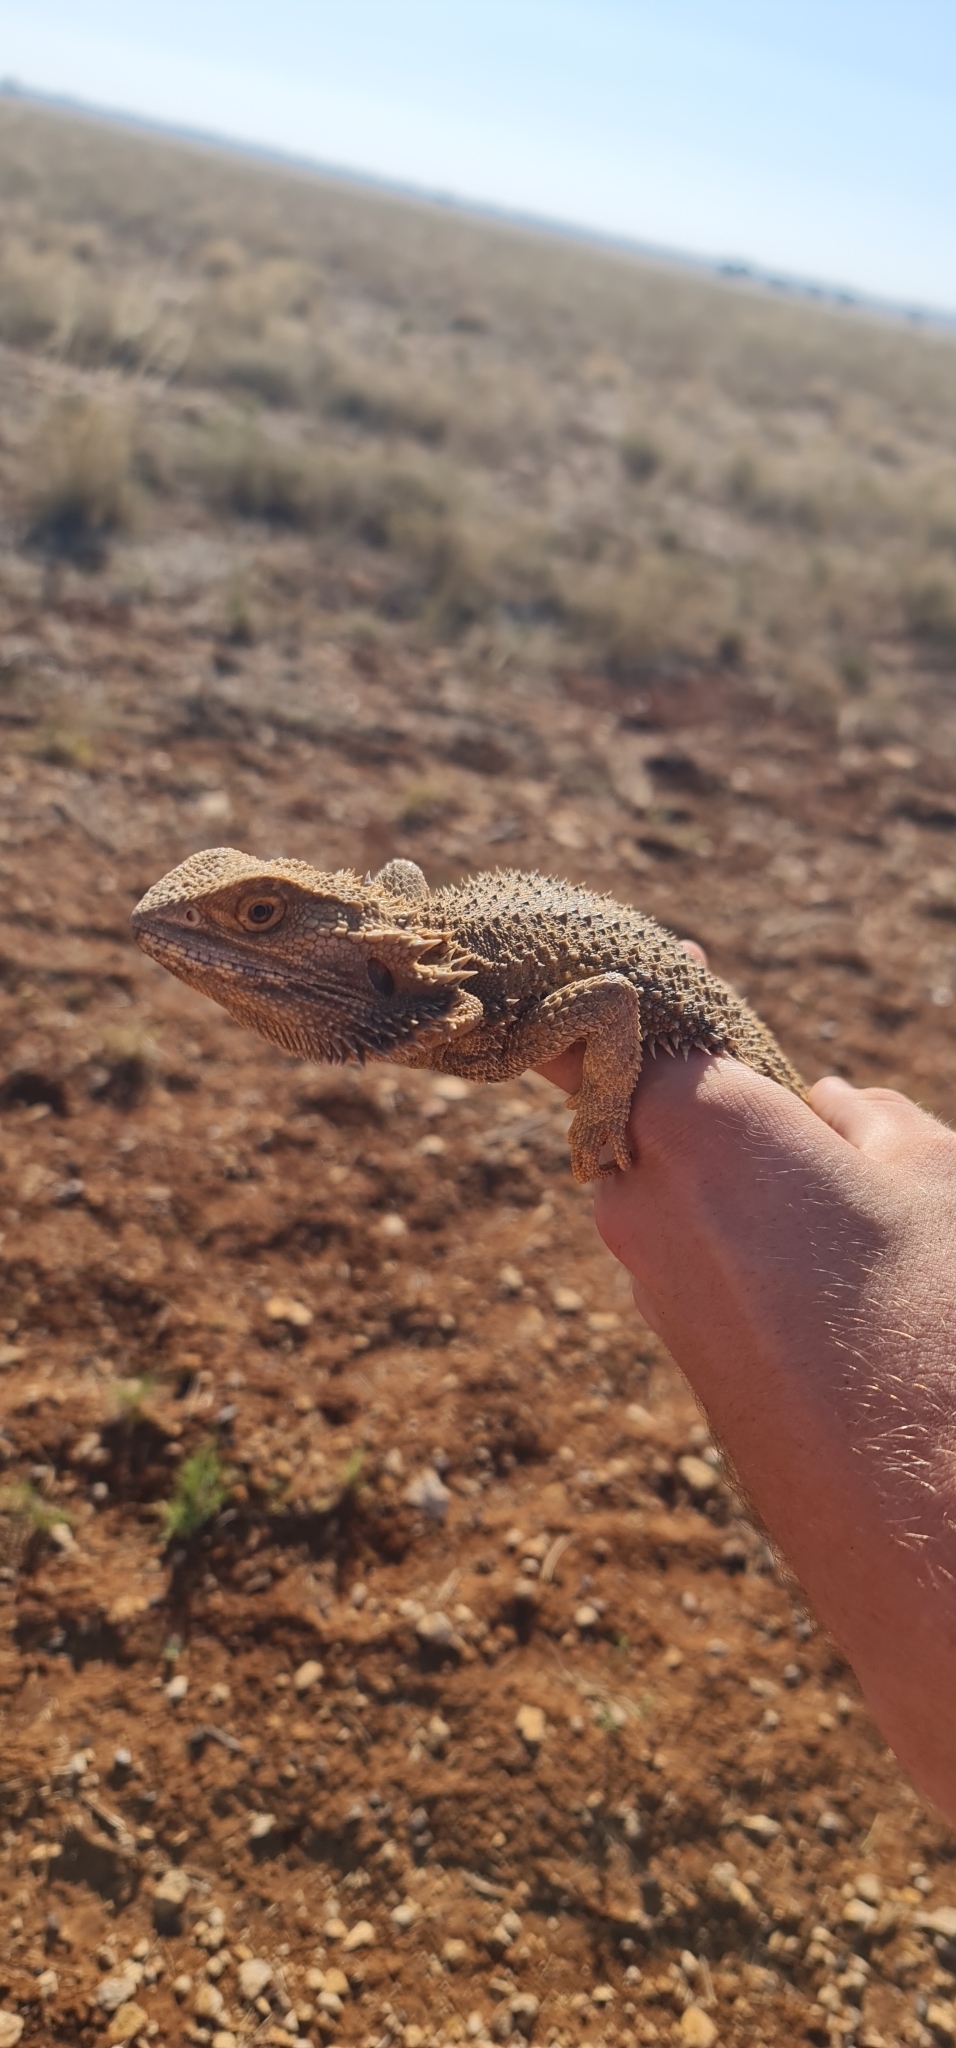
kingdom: Animalia
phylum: Chordata
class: Squamata
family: Agamidae
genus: Pogona
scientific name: Pogona vitticeps
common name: Central bearded dragon
